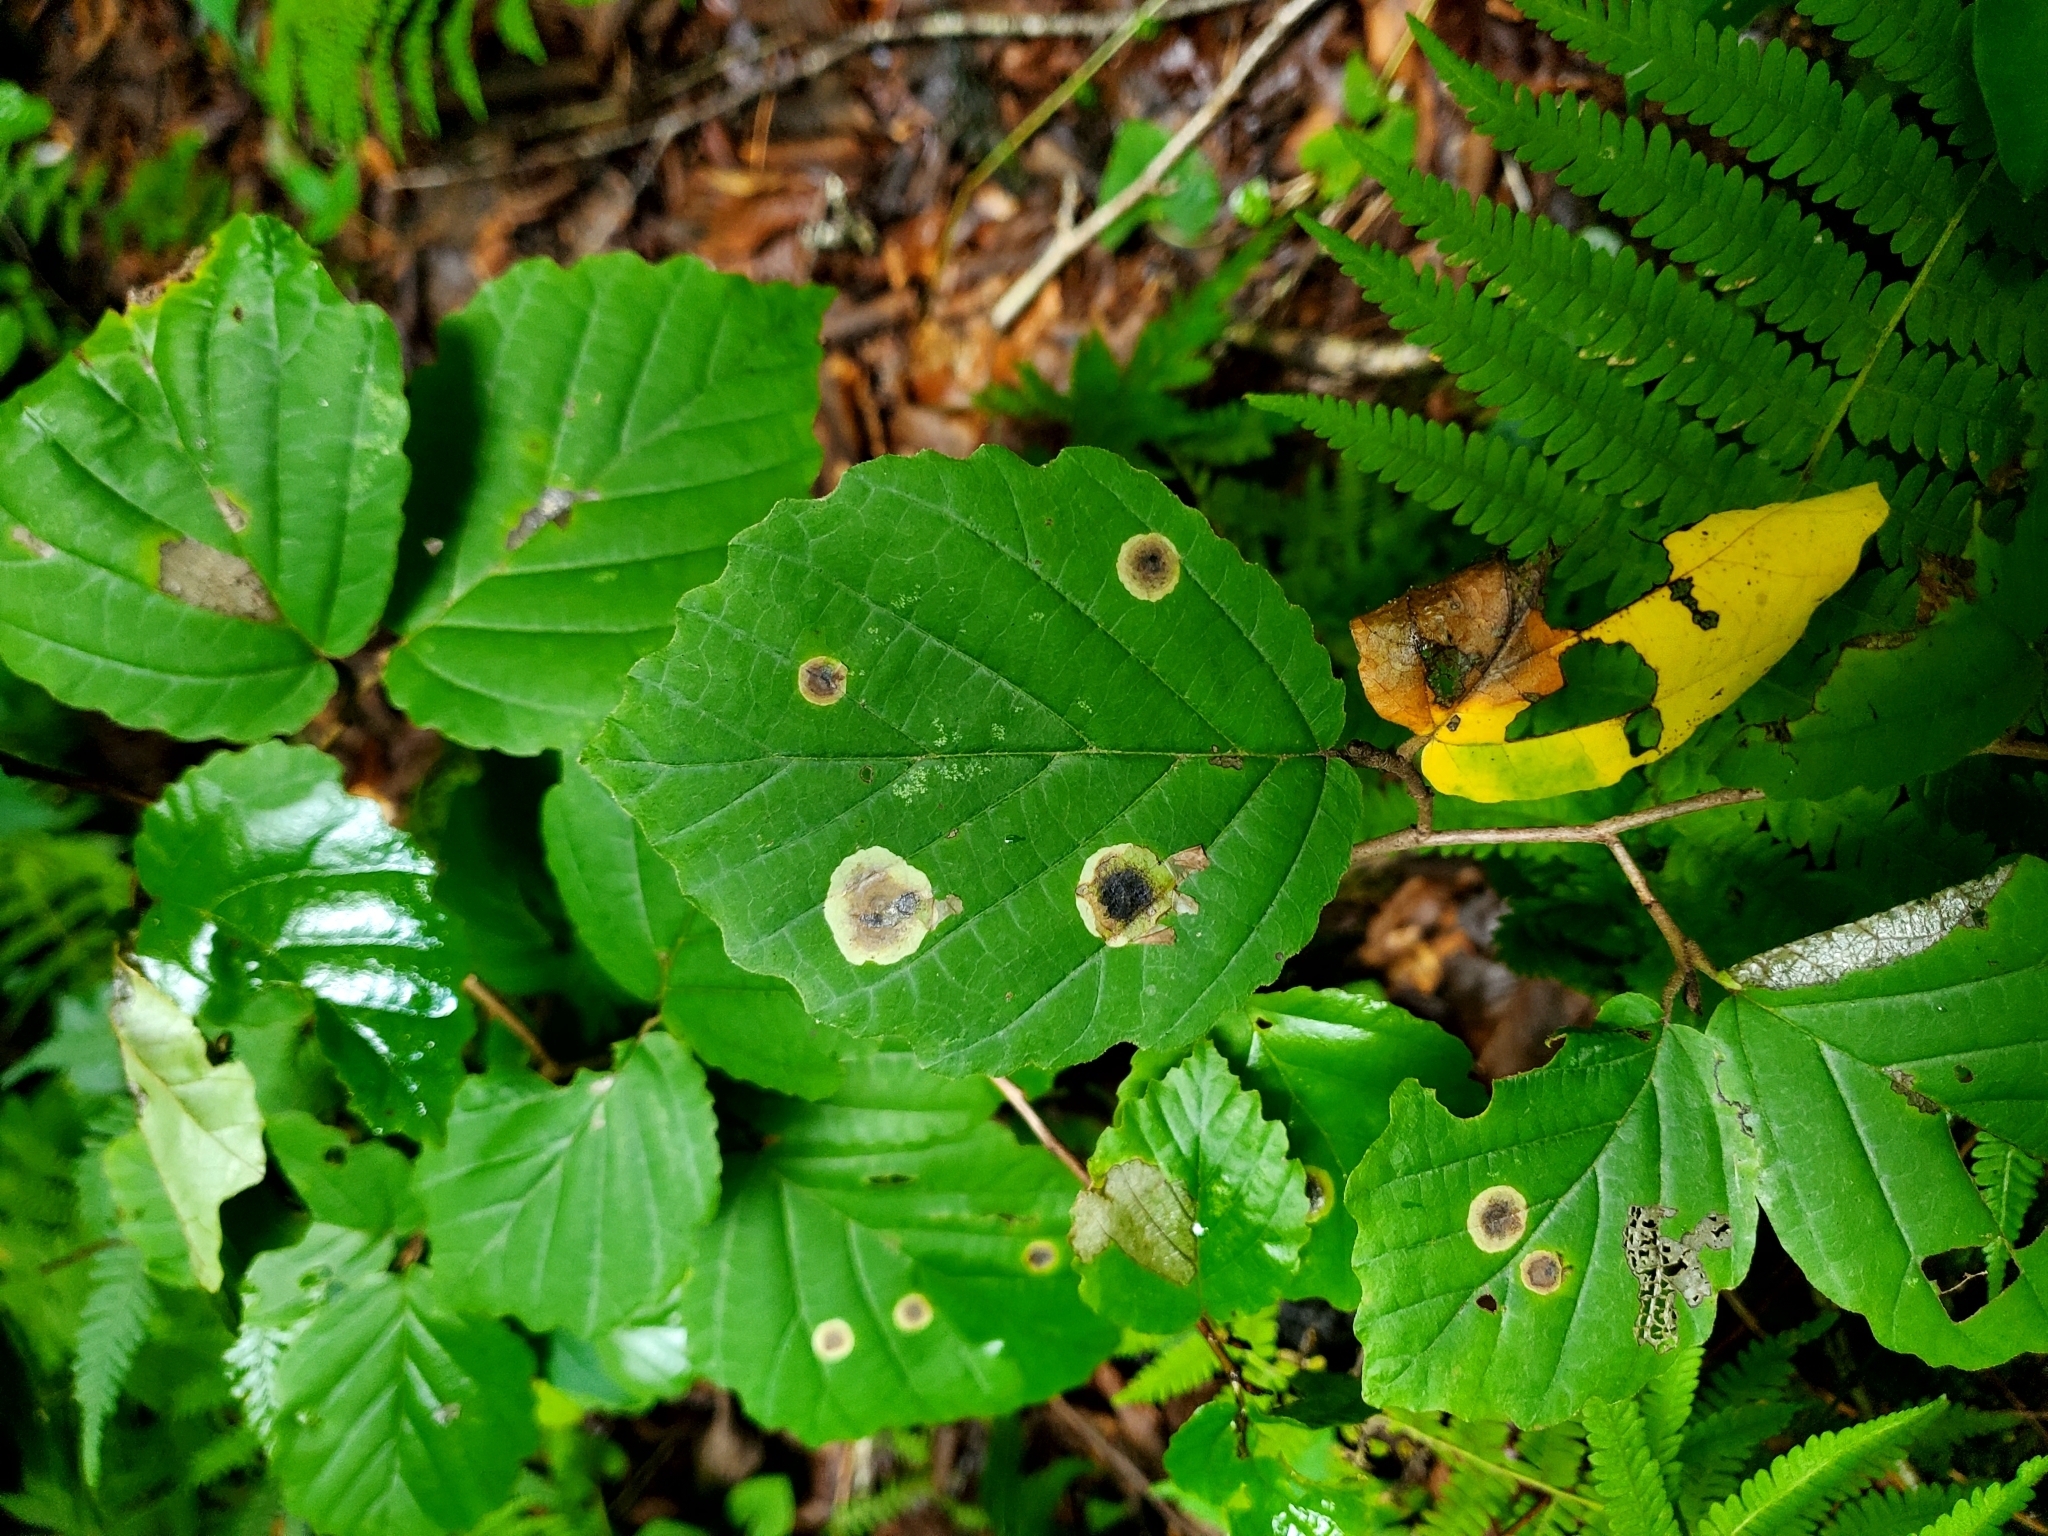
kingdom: Animalia
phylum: Arthropoda
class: Insecta
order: Lepidoptera
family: Gracillariidae
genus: Cameraria
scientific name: Cameraria hamameliella
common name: Witchhazel leafminer
